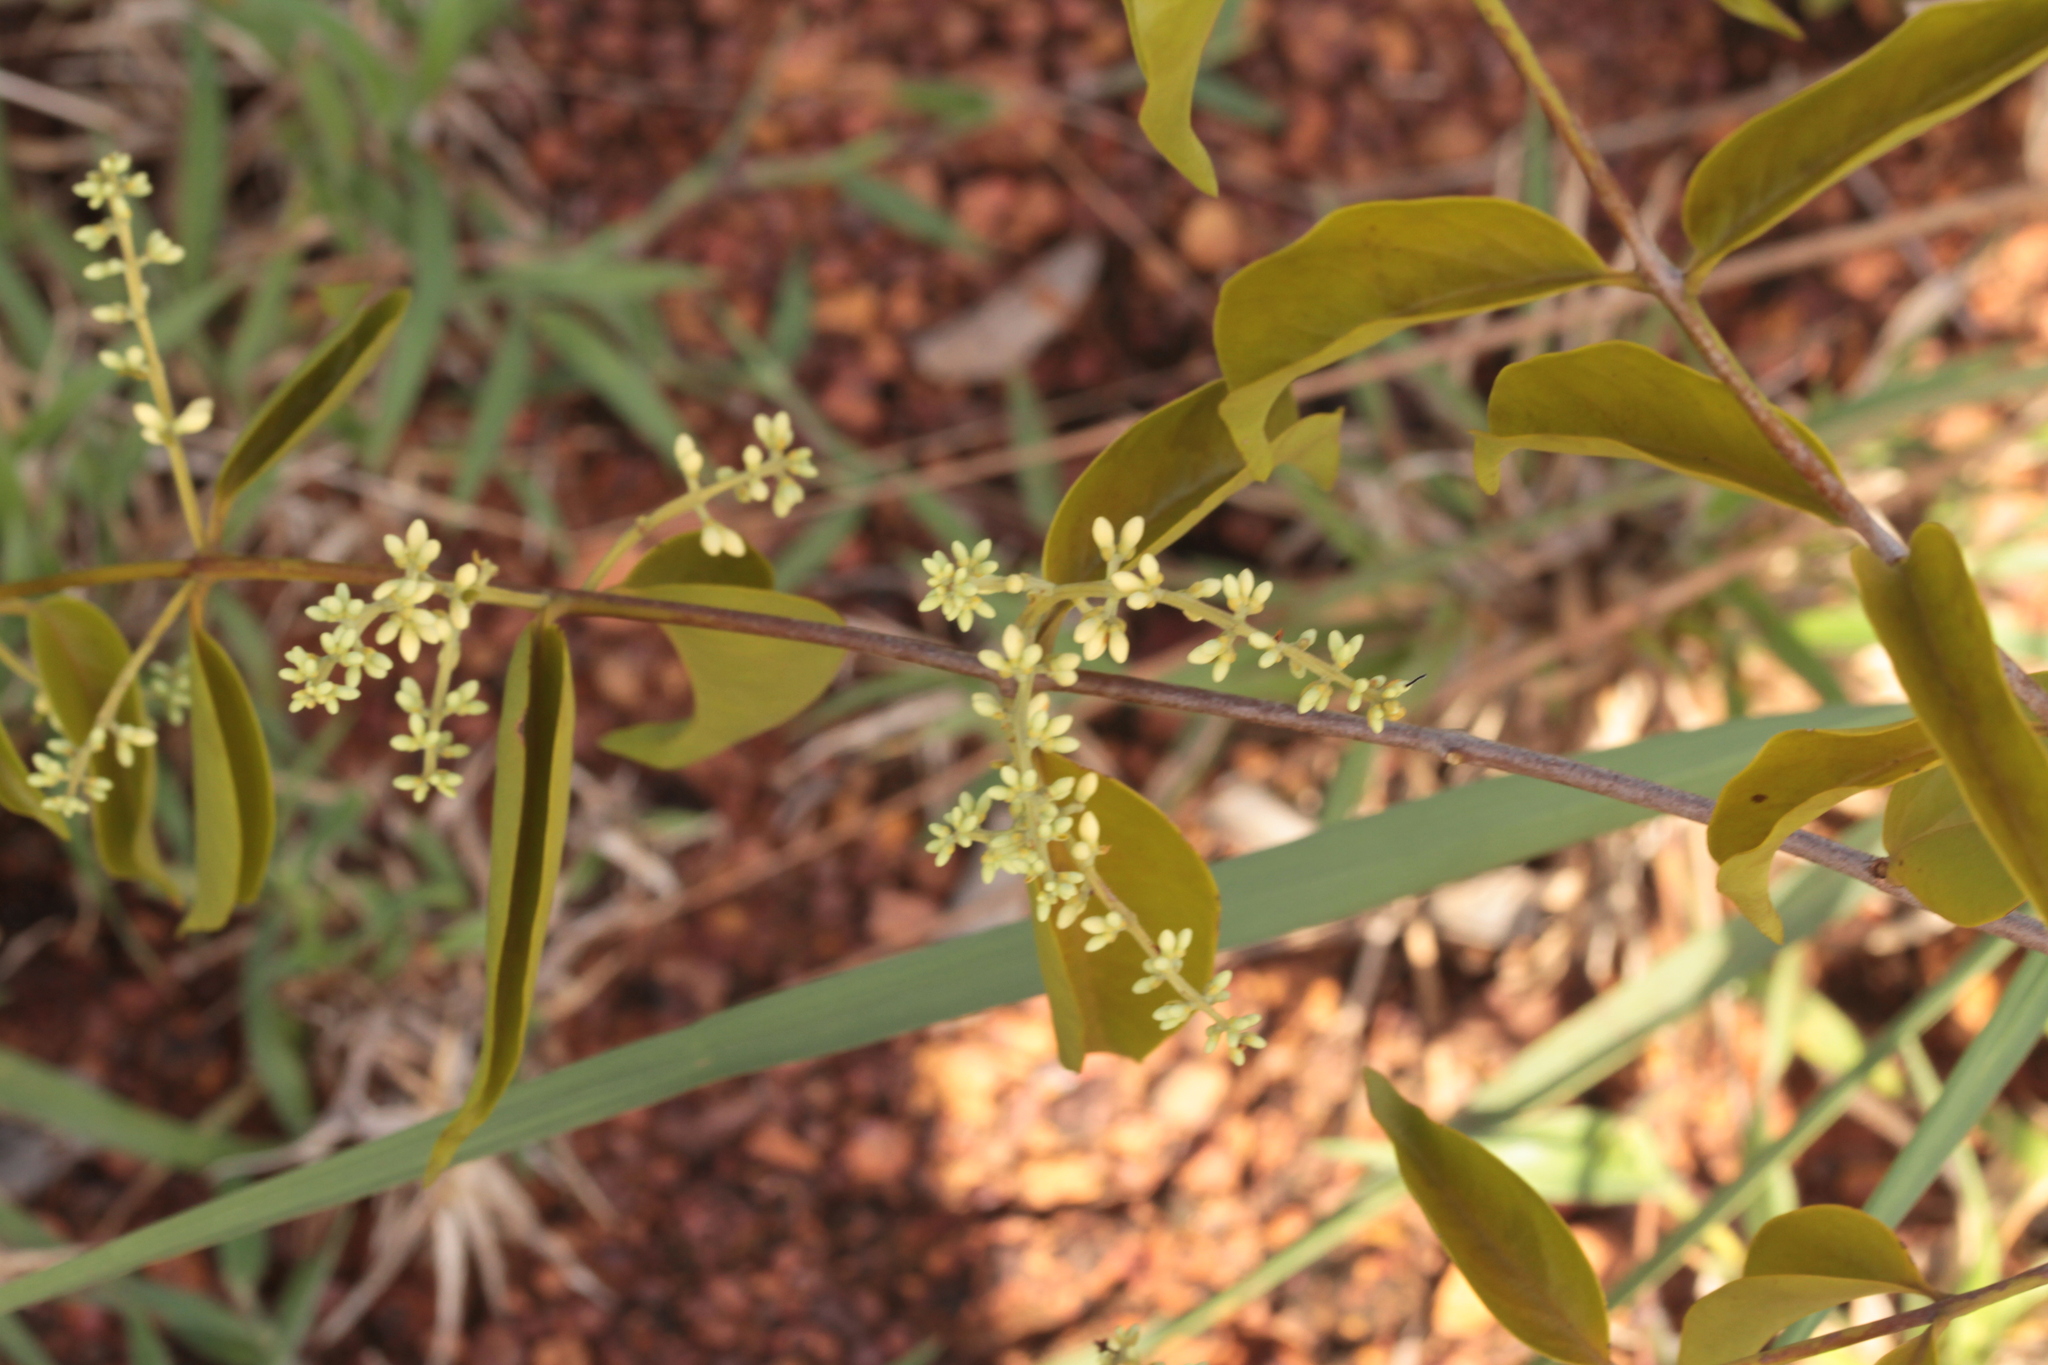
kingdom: Plantae
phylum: Tracheophyta
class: Magnoliopsida
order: Santalales
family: Loranthaceae
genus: Passovia
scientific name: Passovia pedunculata
